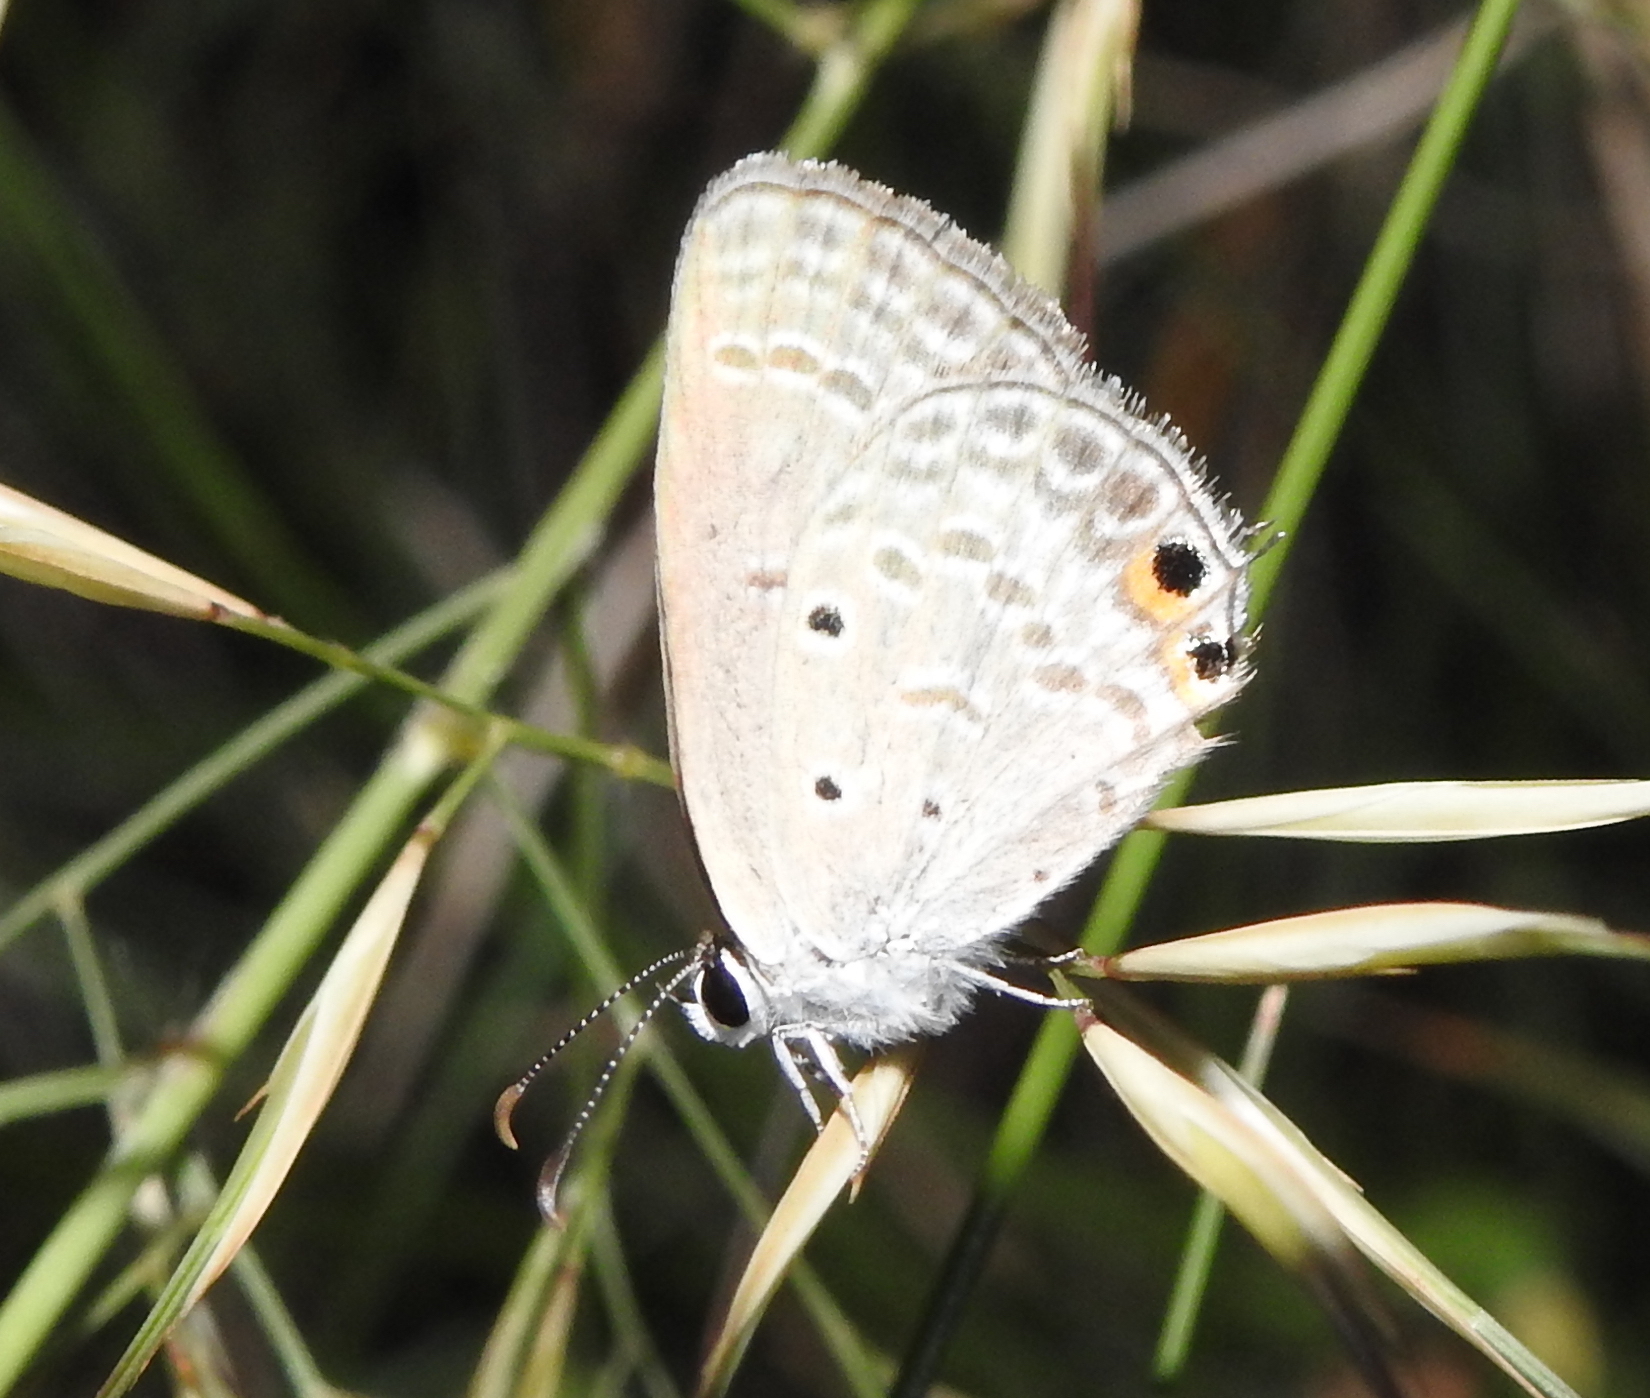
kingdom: Animalia
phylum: Arthropoda
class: Insecta
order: Lepidoptera
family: Lycaenidae
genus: Euchrysops
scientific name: Euchrysops cnejus
